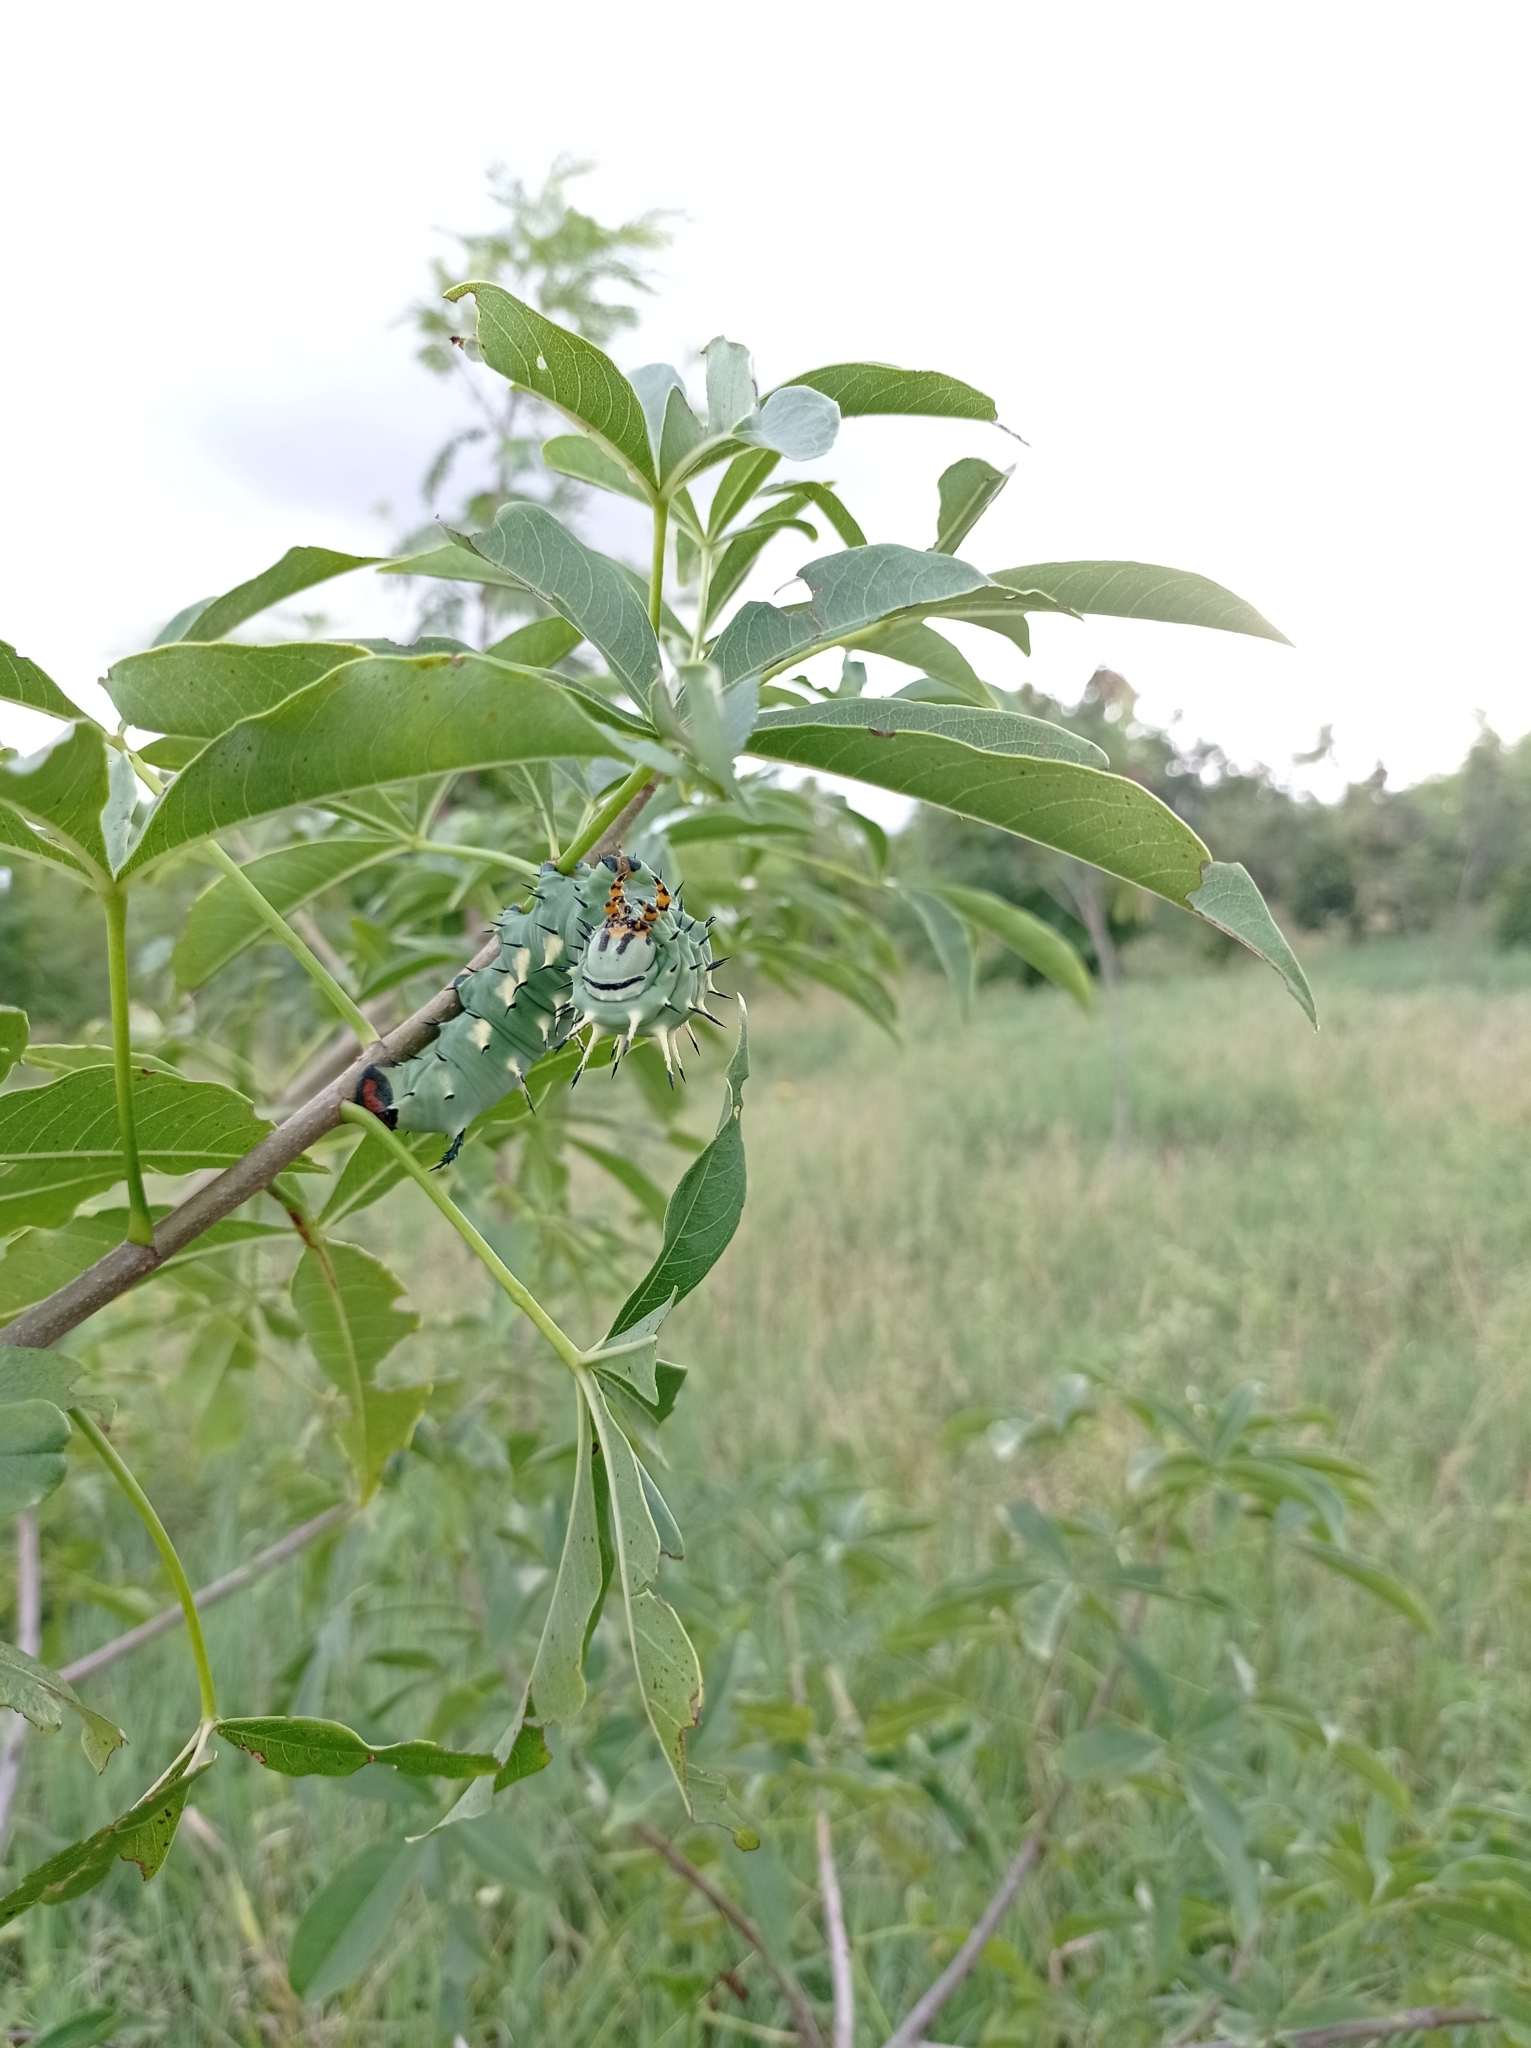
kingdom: Animalia
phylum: Arthropoda
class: Insecta
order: Lepidoptera
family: Sphingidae
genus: Lophostethus
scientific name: Lophostethus dumolinii
